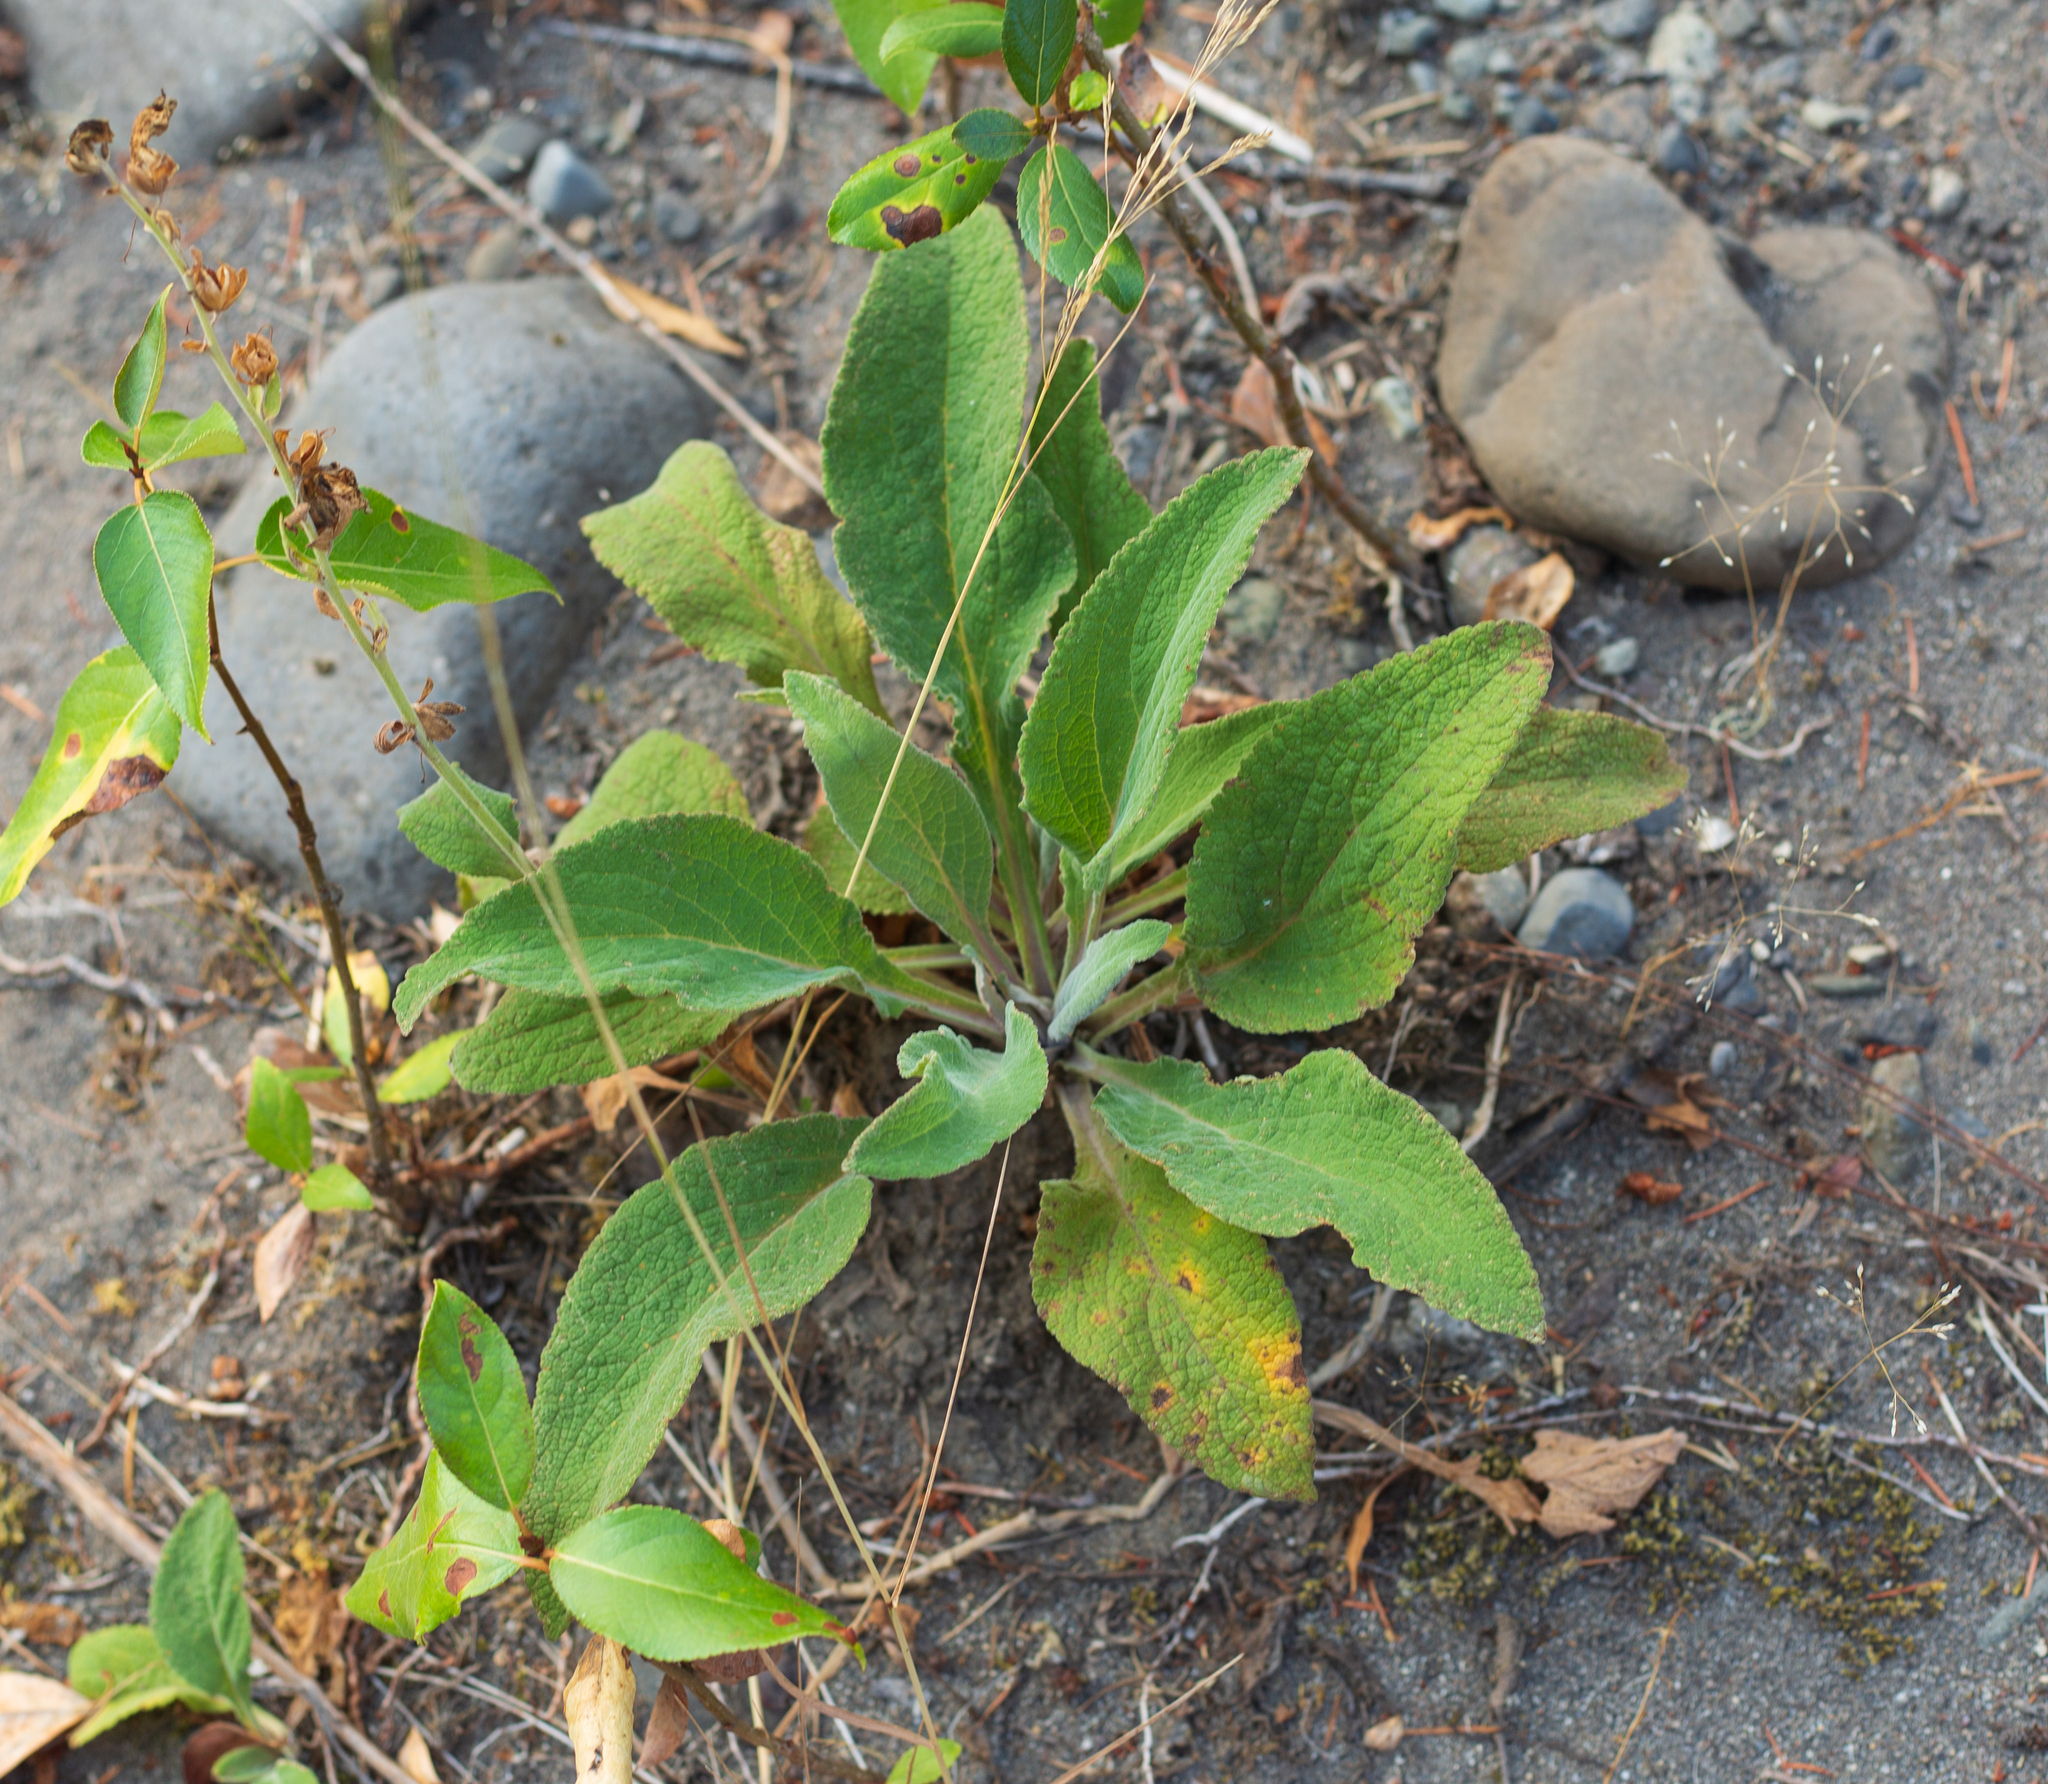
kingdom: Plantae
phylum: Tracheophyta
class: Magnoliopsida
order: Lamiales
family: Plantaginaceae
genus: Digitalis
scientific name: Digitalis purpurea
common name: Foxglove
